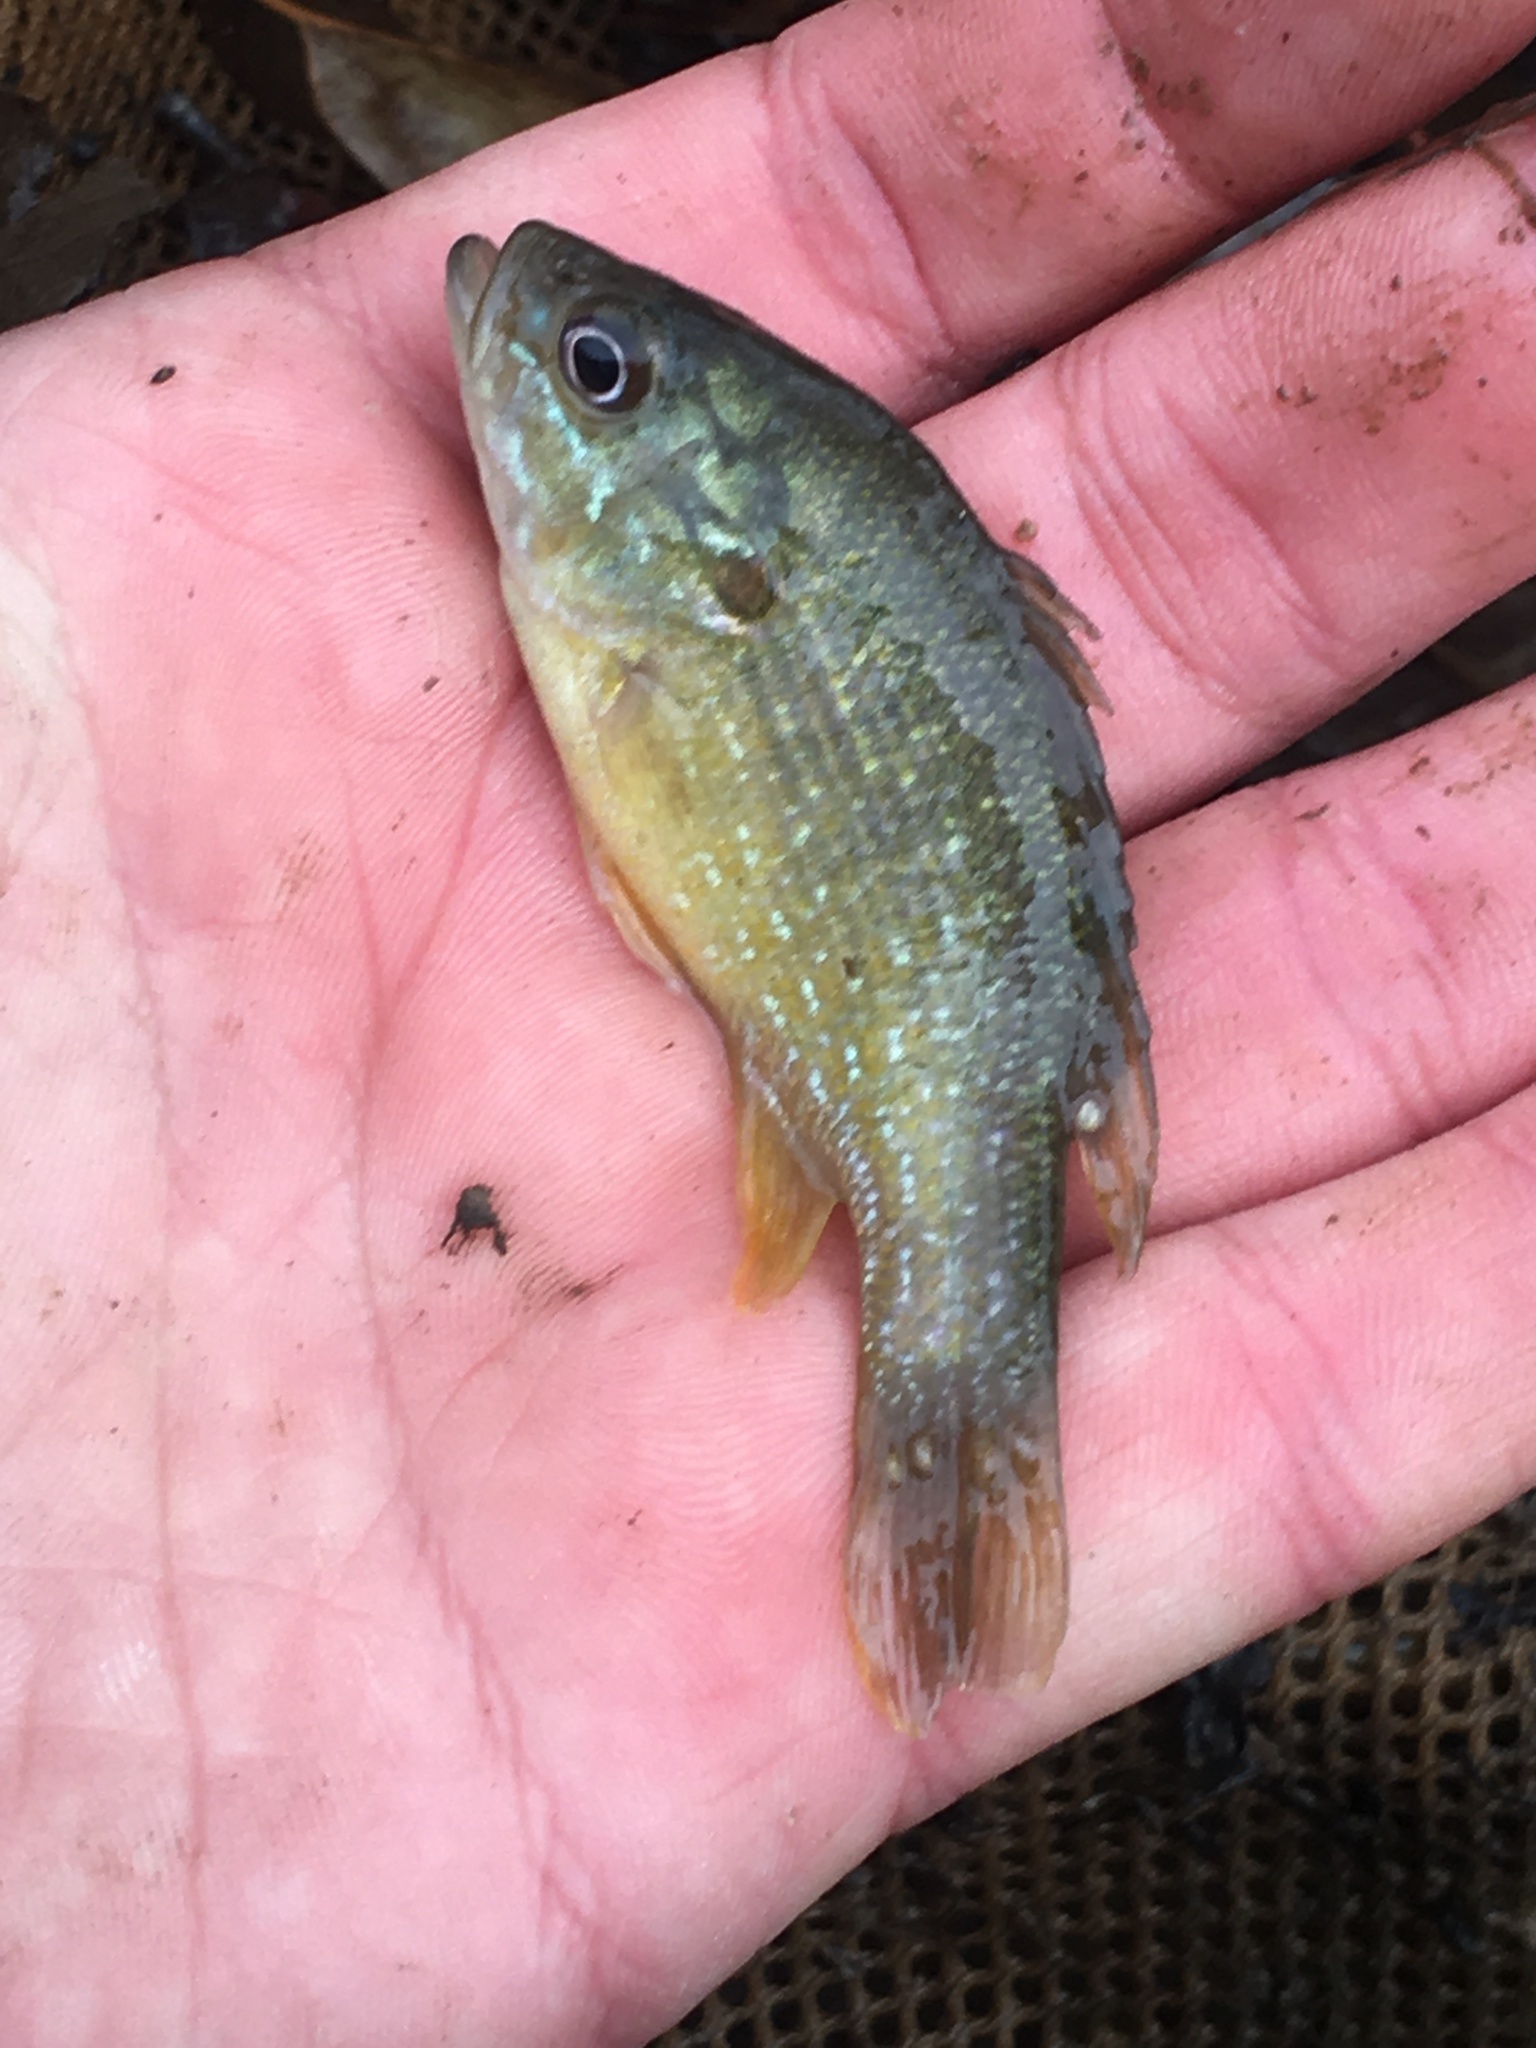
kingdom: Animalia
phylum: Chordata
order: Perciformes
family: Centrarchidae
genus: Lepomis
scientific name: Lepomis cyanellus
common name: Green sunfish
